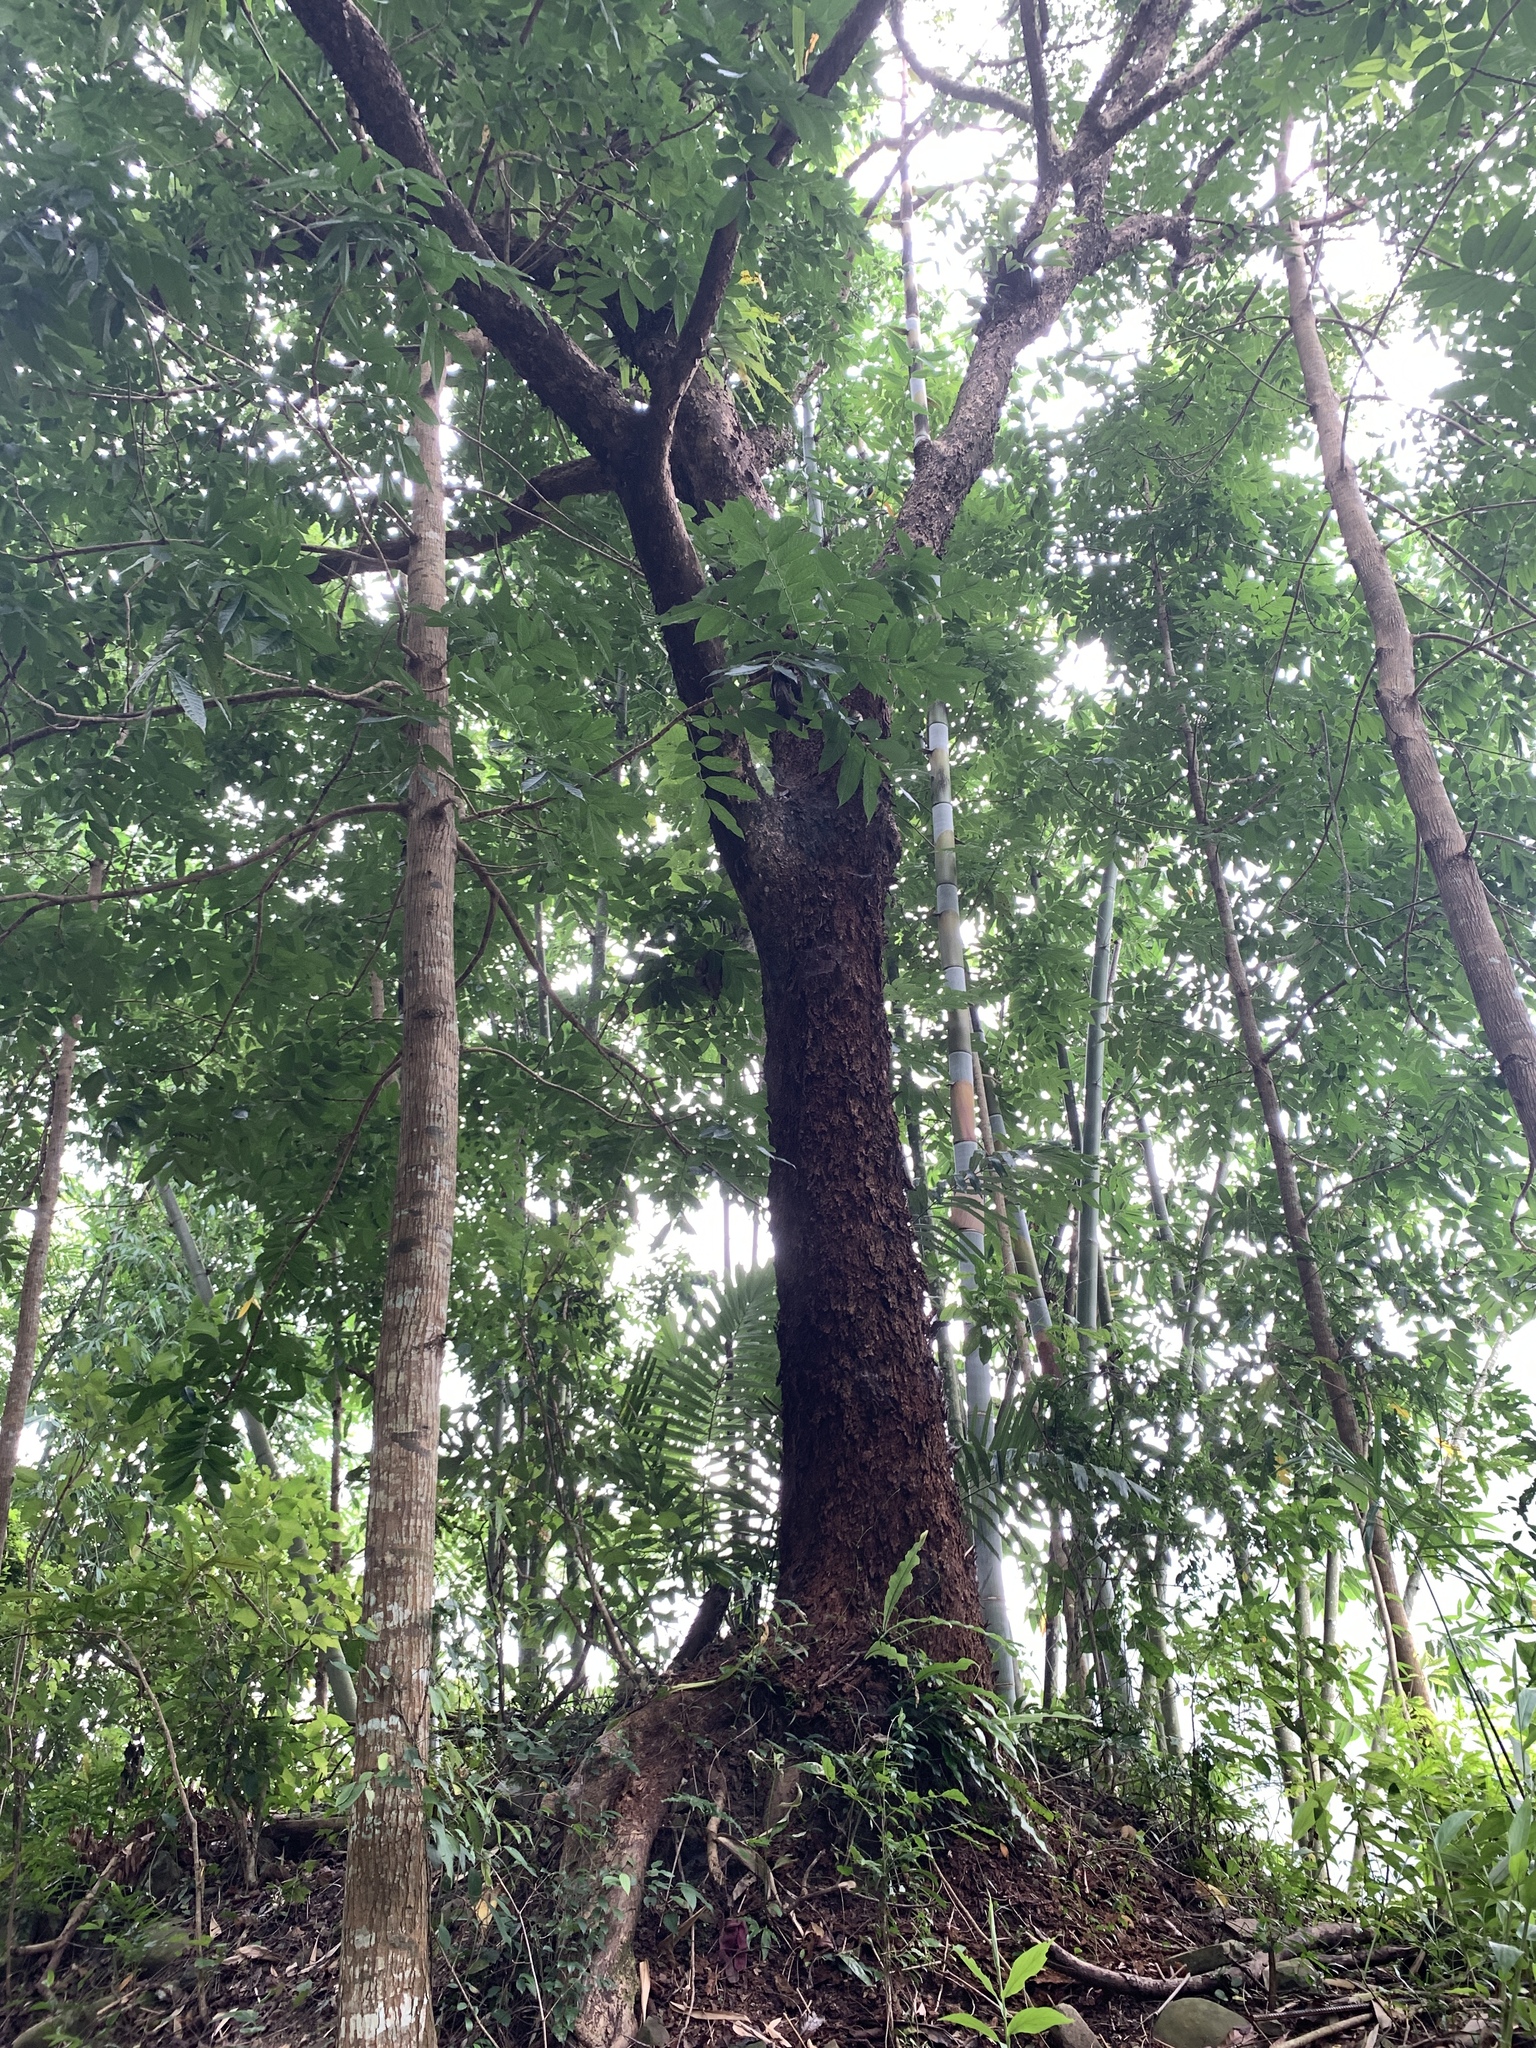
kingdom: Plantae
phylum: Tracheophyta
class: Magnoliopsida
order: Malpighiales
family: Phyllanthaceae
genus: Bischofia
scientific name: Bischofia javanica
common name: Javanese bishopwood
